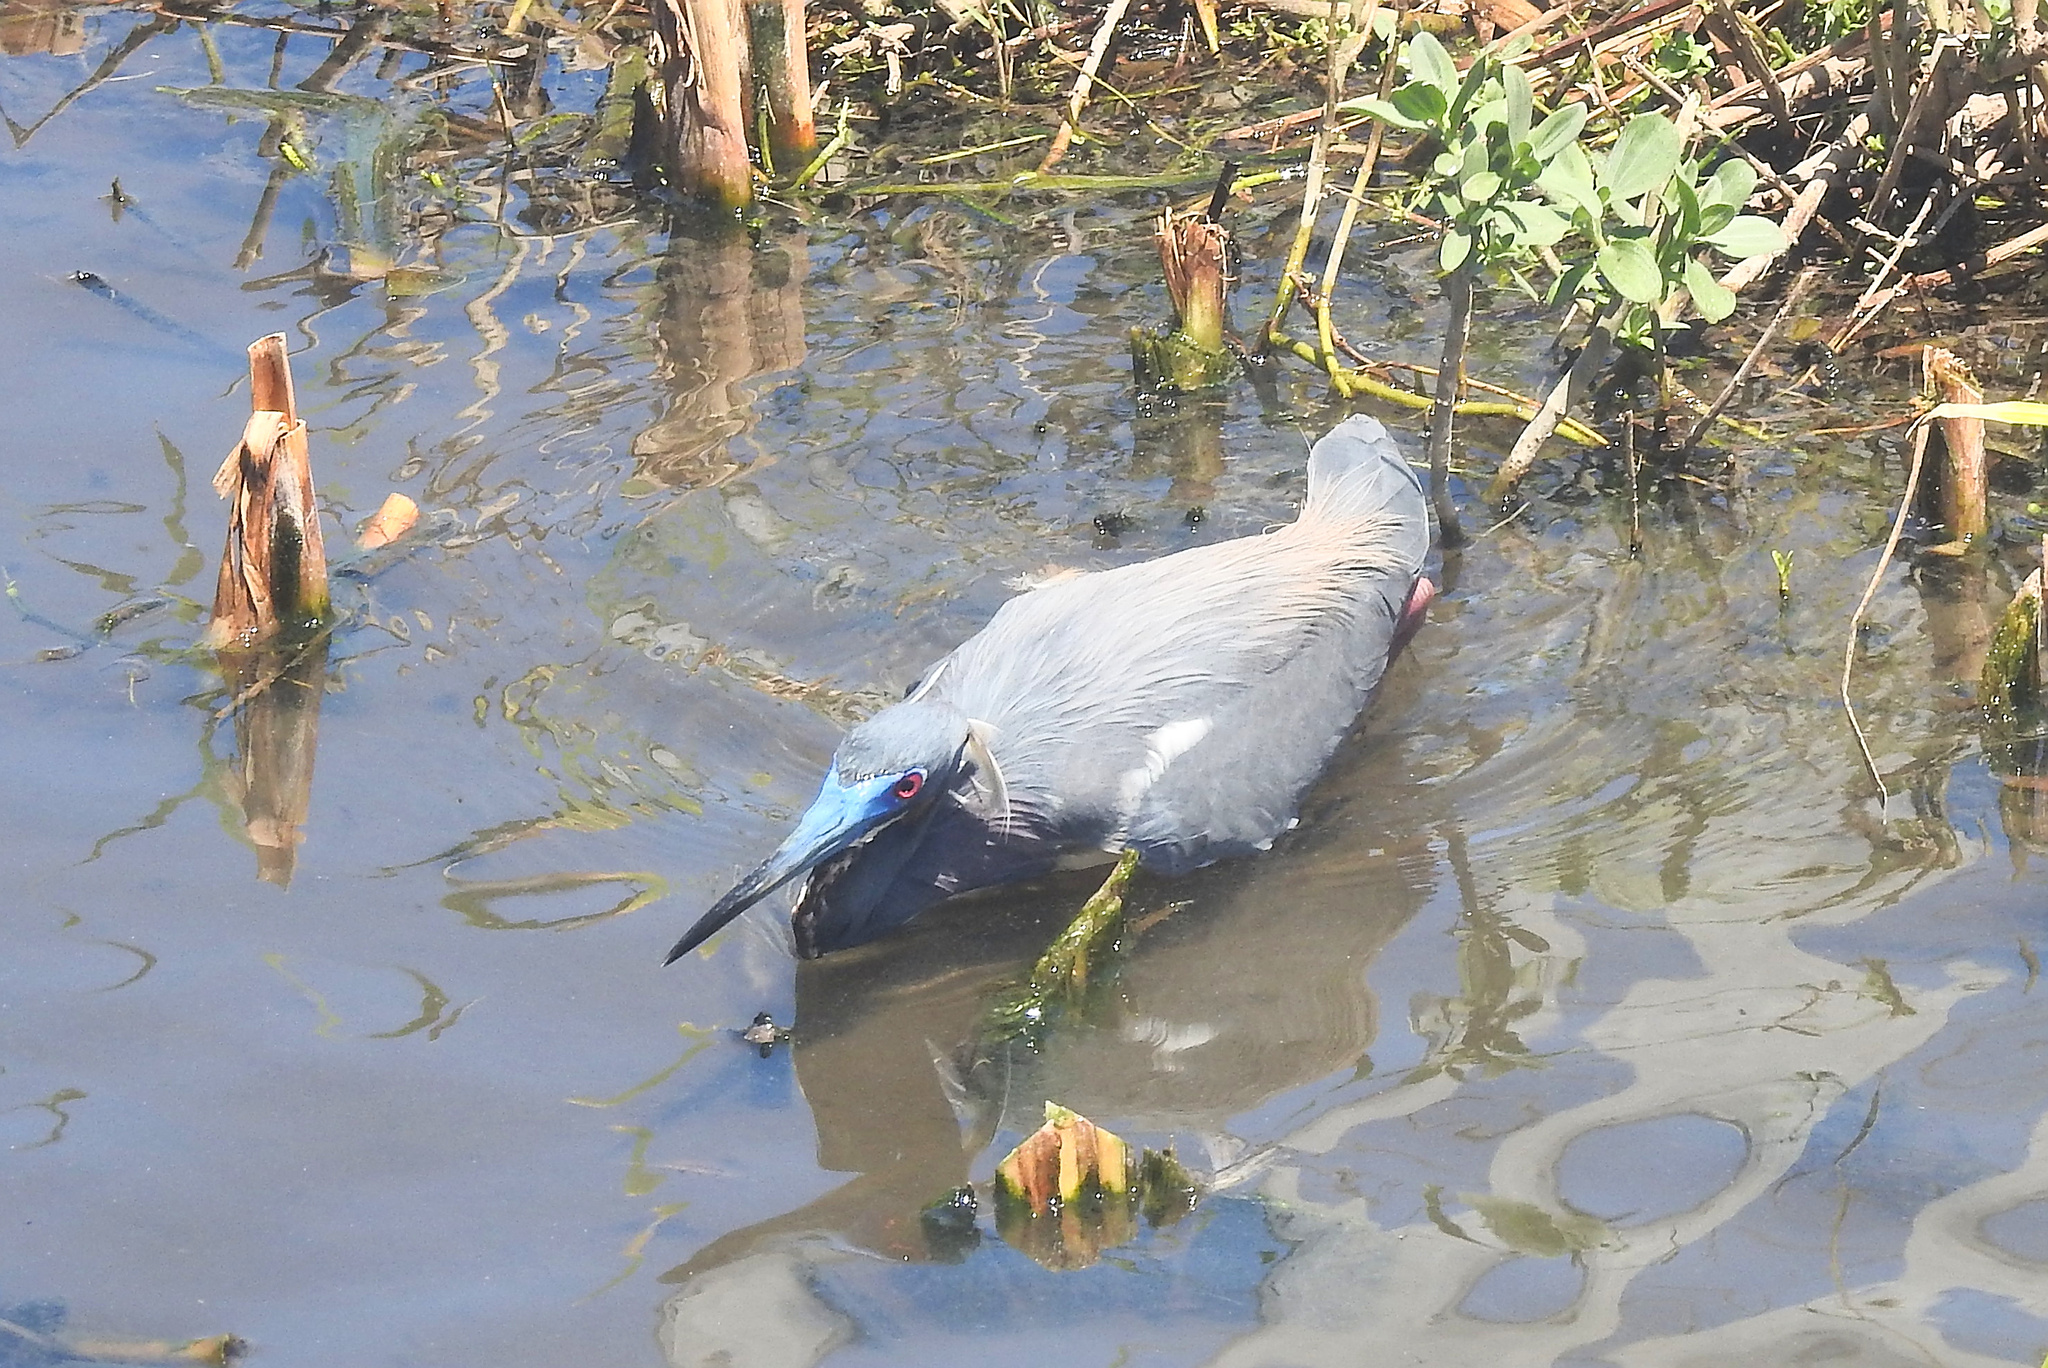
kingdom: Animalia
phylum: Chordata
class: Aves
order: Pelecaniformes
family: Ardeidae
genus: Egretta
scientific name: Egretta tricolor
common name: Tricolored heron
